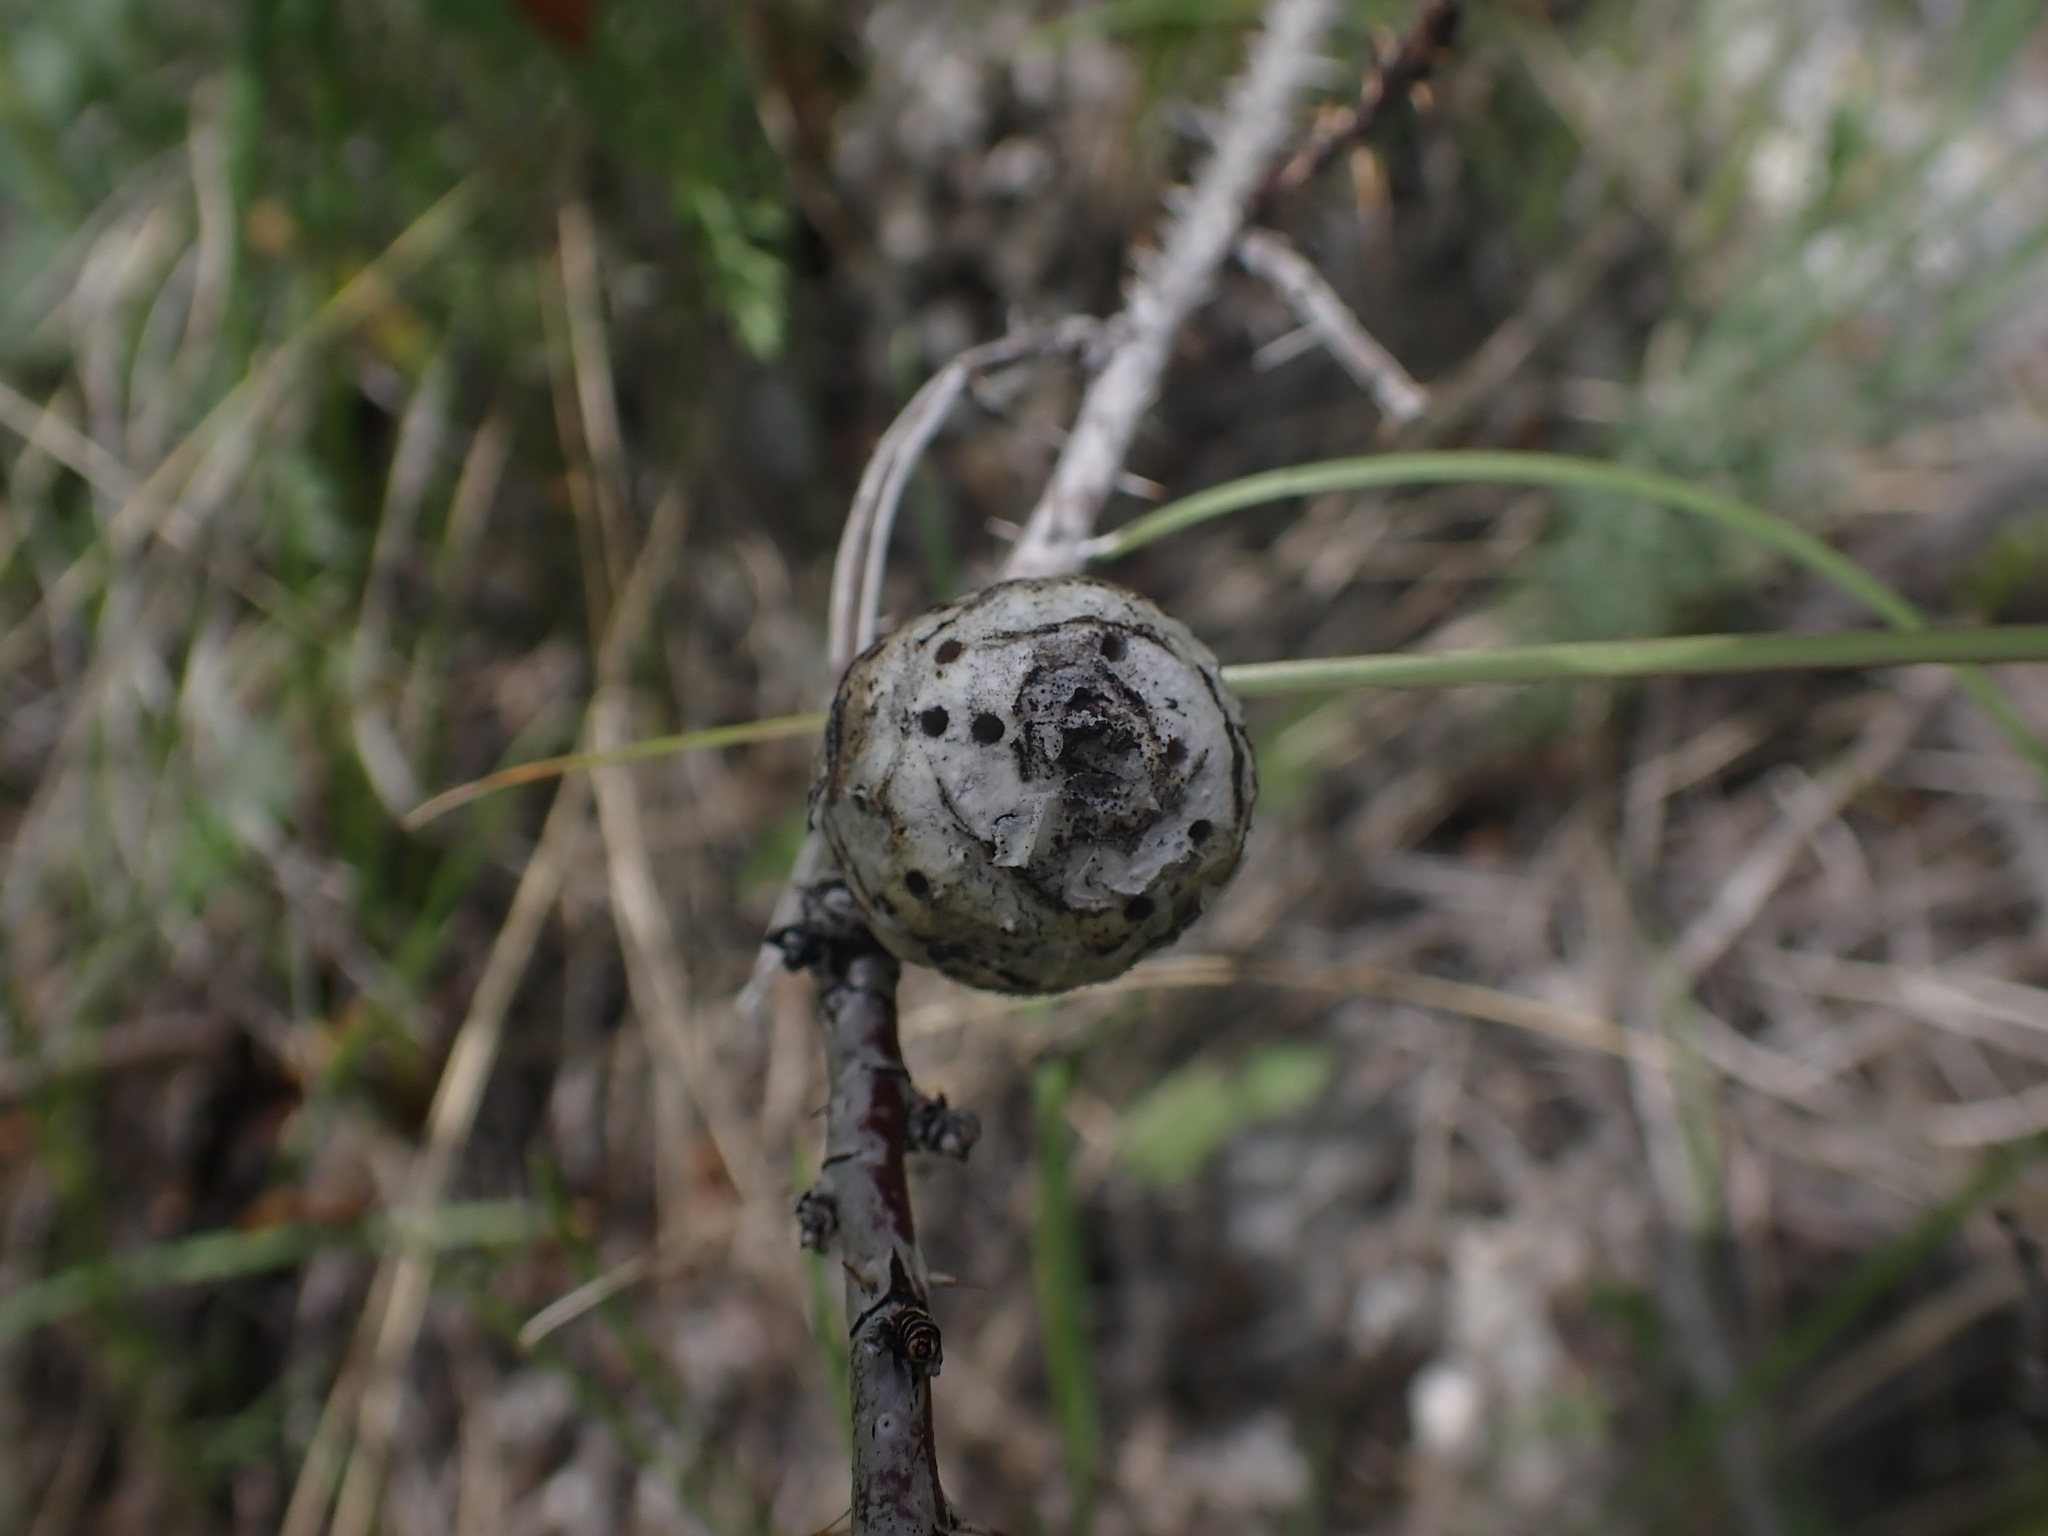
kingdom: Animalia
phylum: Arthropoda
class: Insecta
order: Hymenoptera
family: Cynipidae
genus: Diplolepis
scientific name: Diplolepis spinosa
